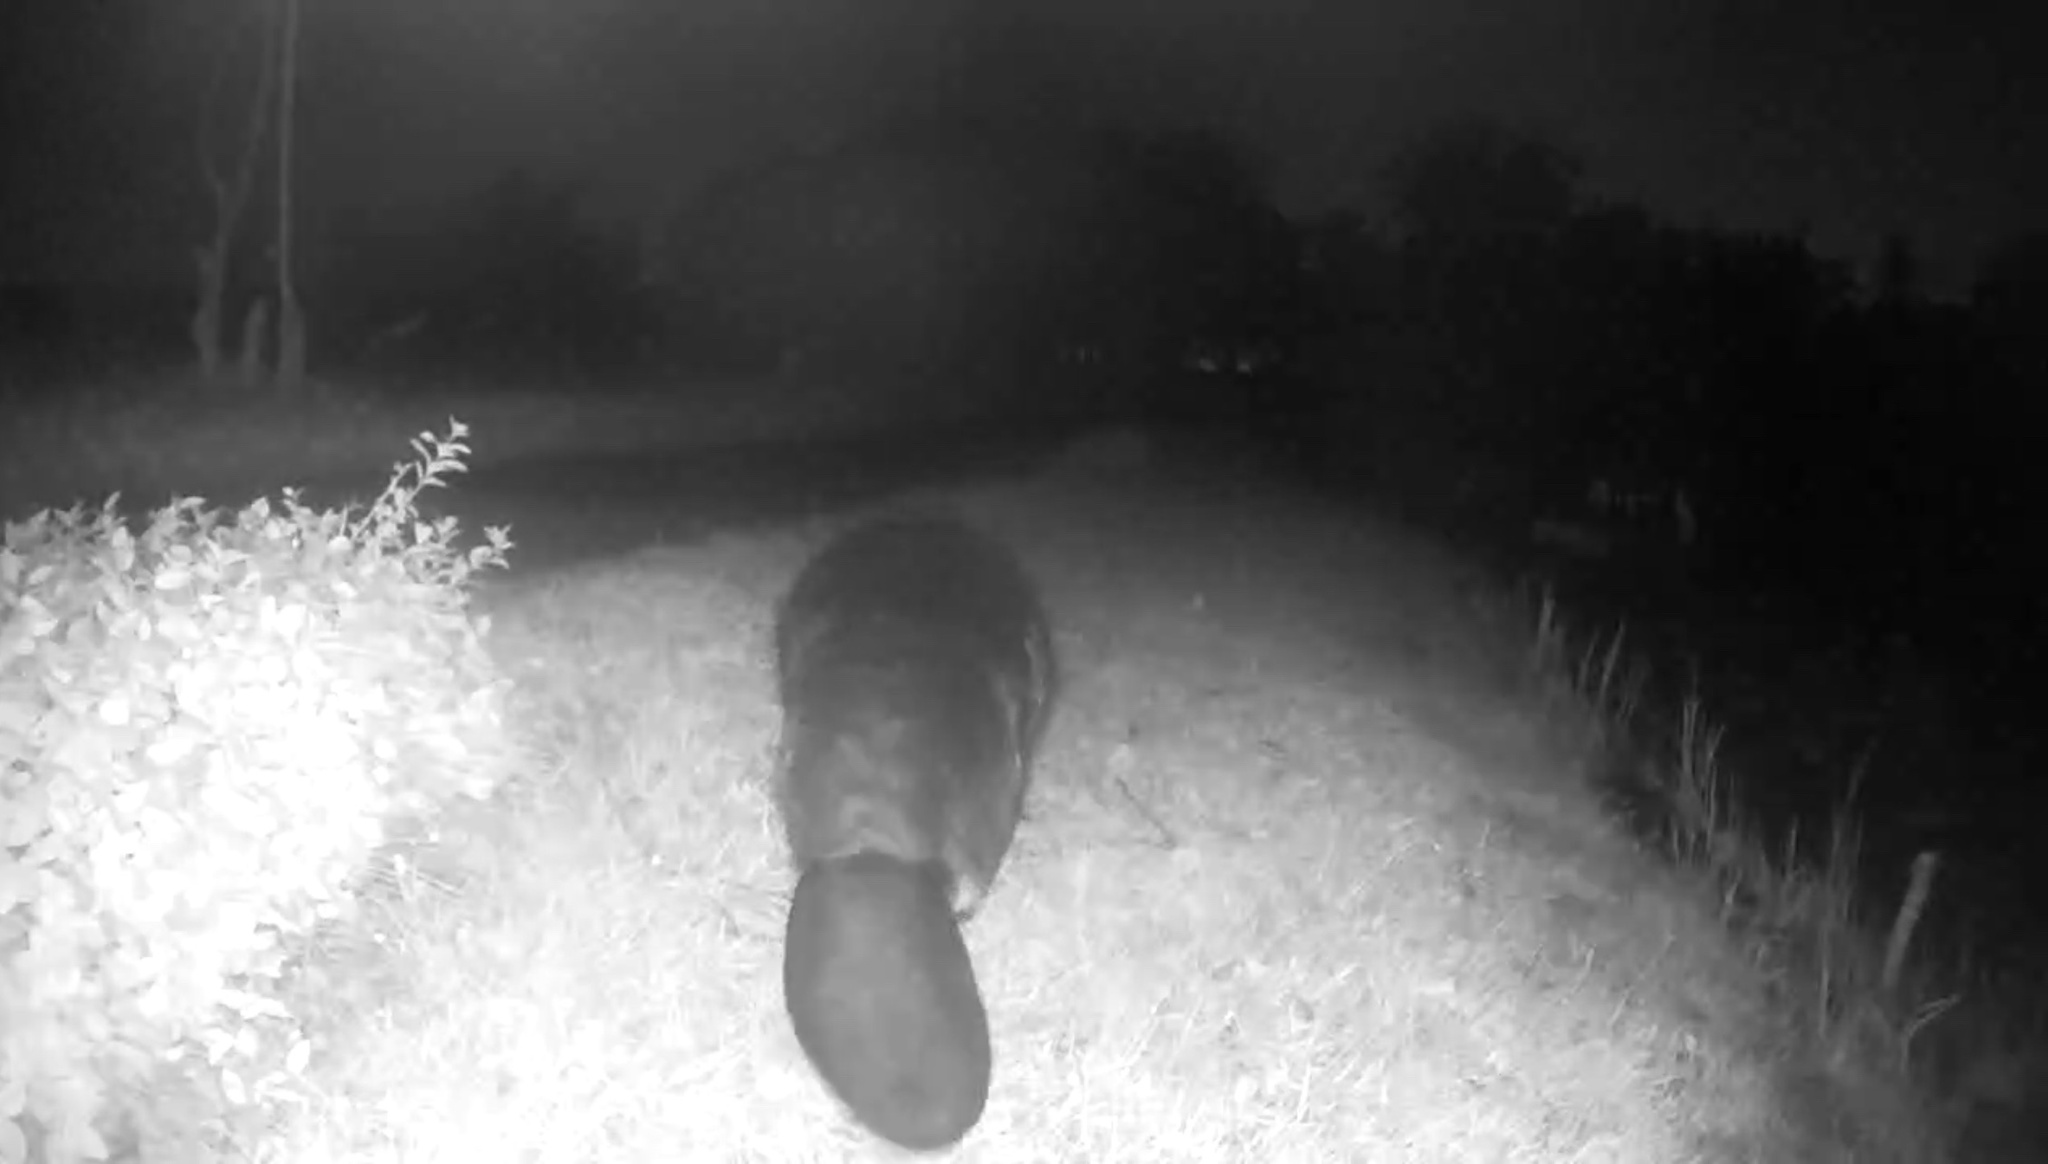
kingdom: Animalia
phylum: Chordata
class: Mammalia
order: Rodentia
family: Castoridae
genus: Castor
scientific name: Castor canadensis
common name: American beaver
